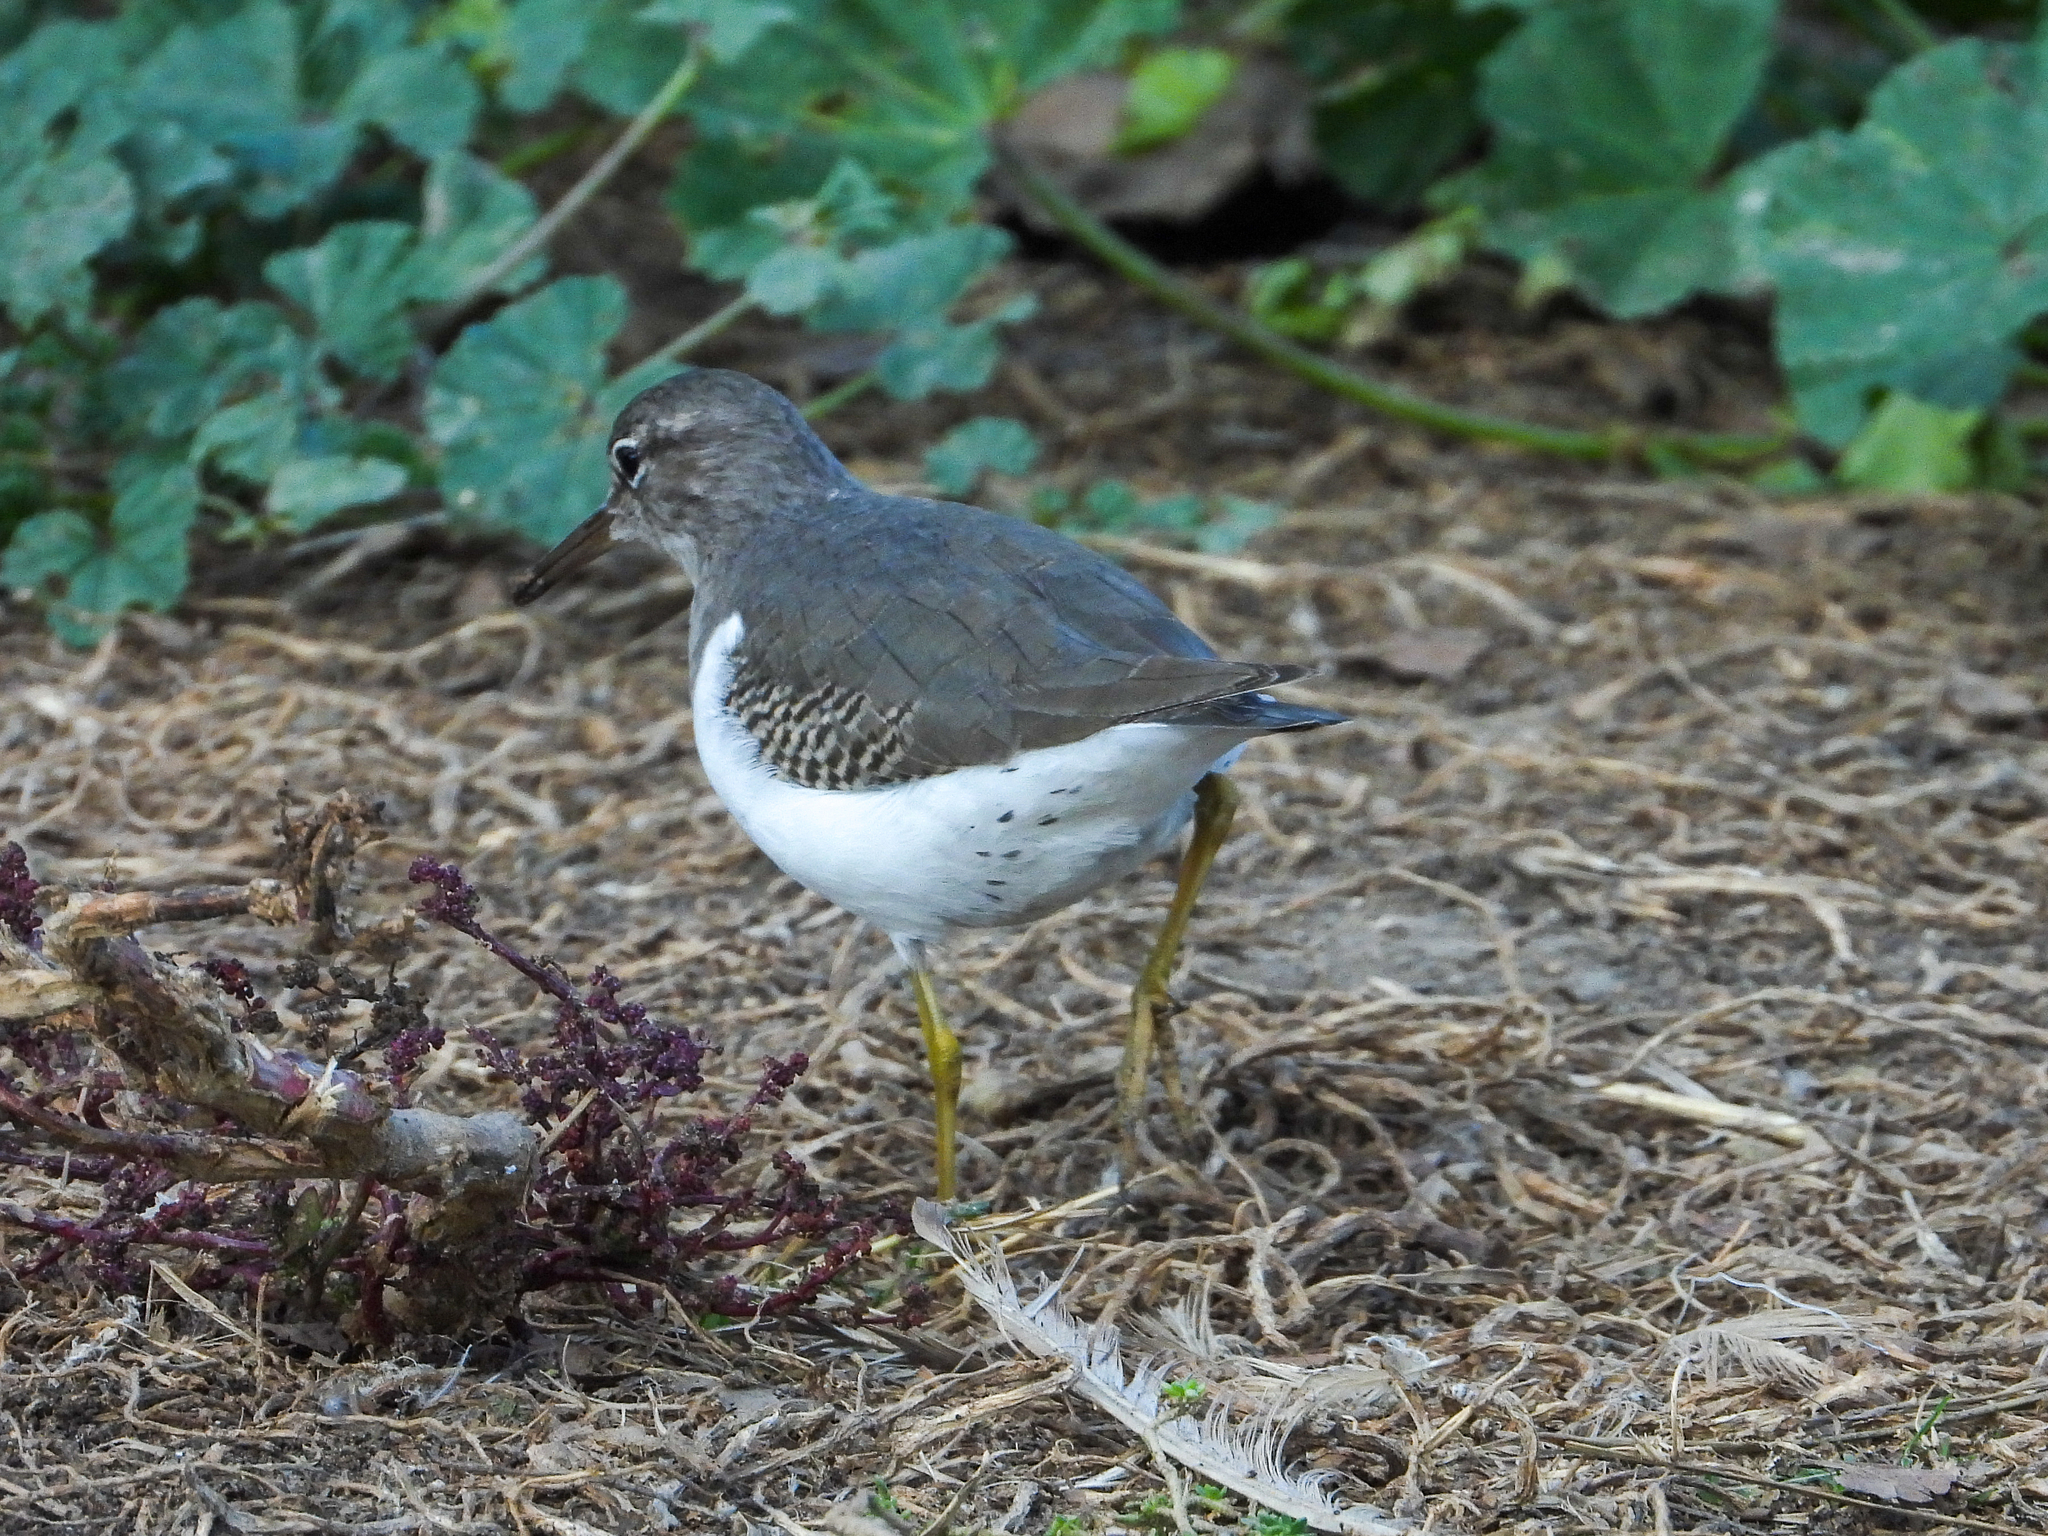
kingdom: Animalia
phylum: Chordata
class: Aves
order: Charadriiformes
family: Scolopacidae
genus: Actitis
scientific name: Actitis macularius
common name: Spotted sandpiper
